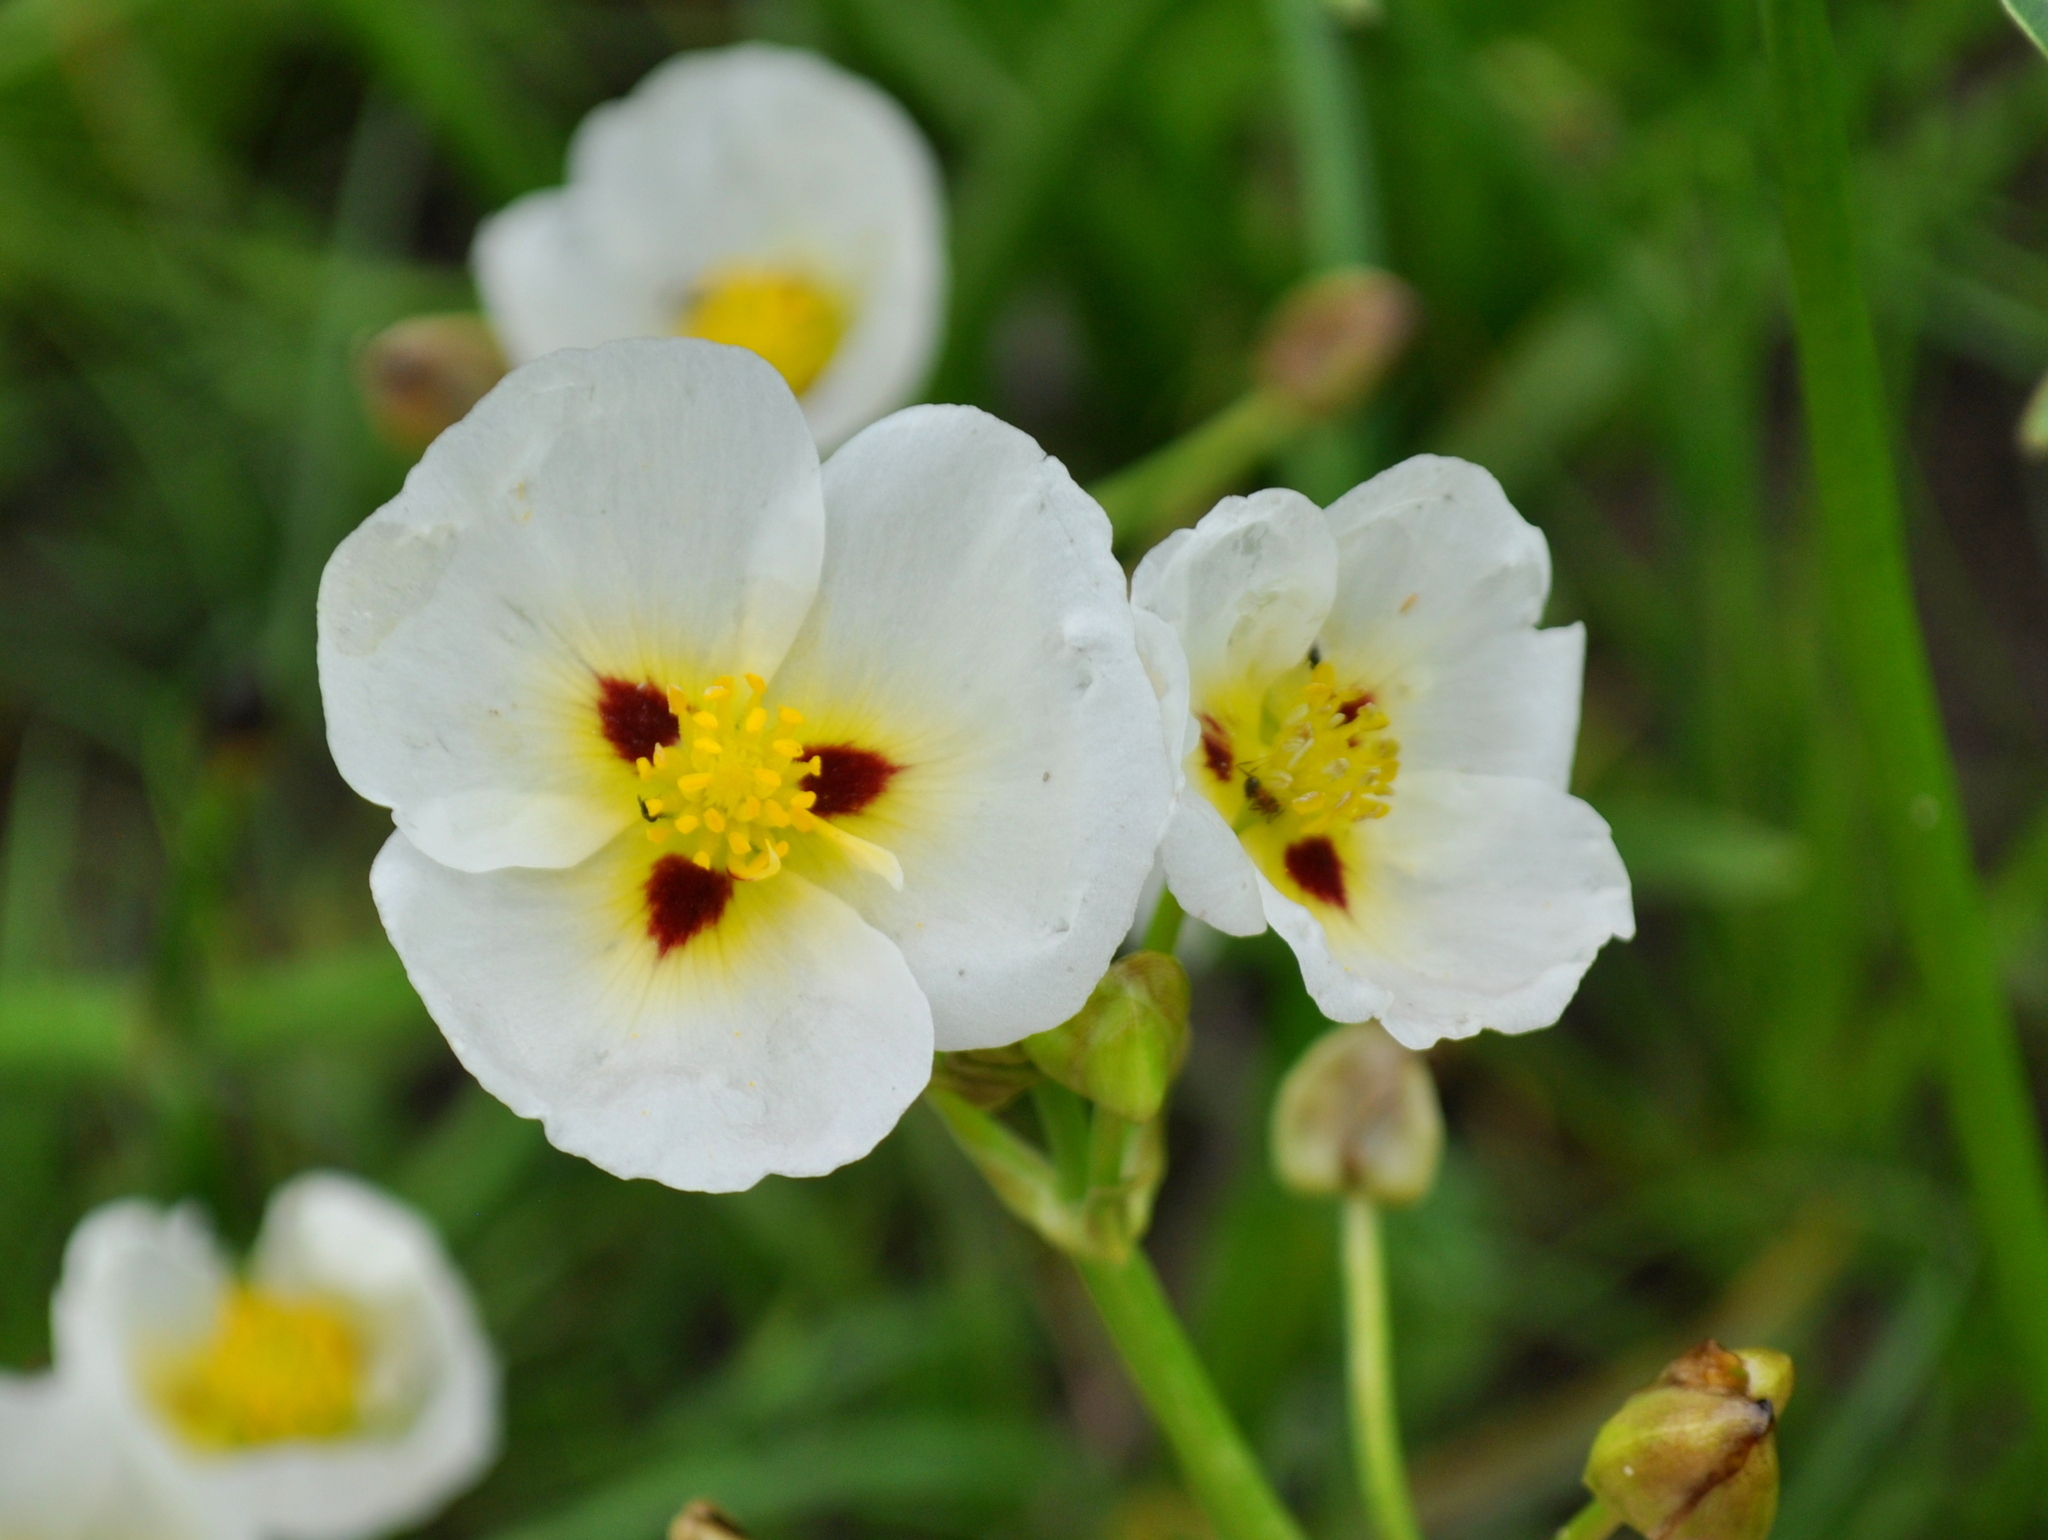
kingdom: Plantae
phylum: Tracheophyta
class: Liliopsida
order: Alismatales
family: Alismataceae
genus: Sagittaria
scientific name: Sagittaria montevidensis
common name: Giant arrowhead
